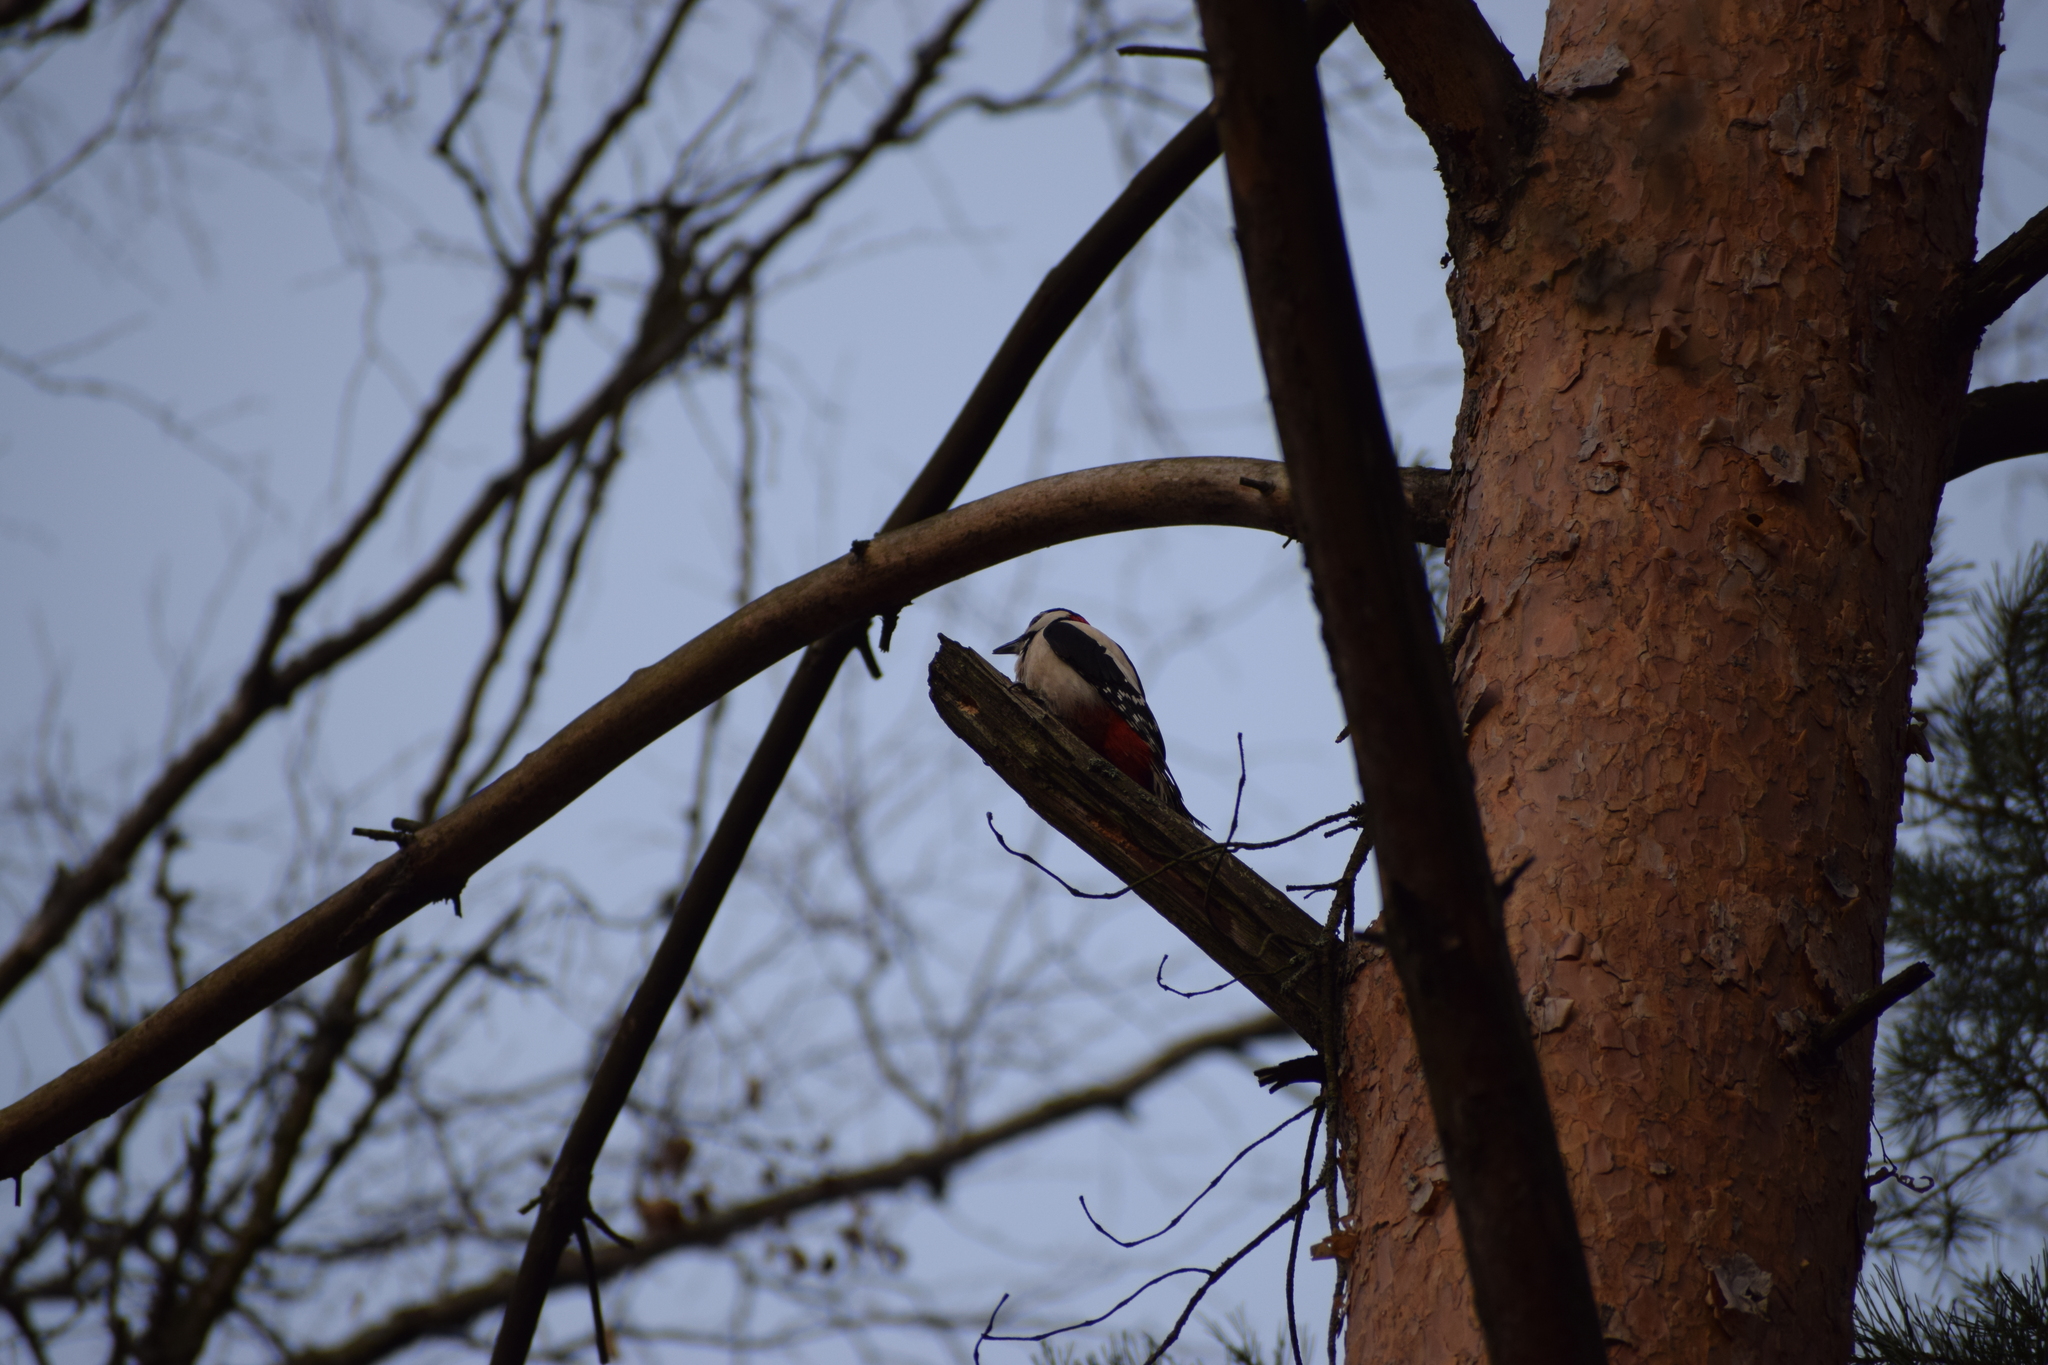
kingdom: Animalia
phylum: Chordata
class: Aves
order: Piciformes
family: Picidae
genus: Dendrocopos
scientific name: Dendrocopos major
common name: Great spotted woodpecker
